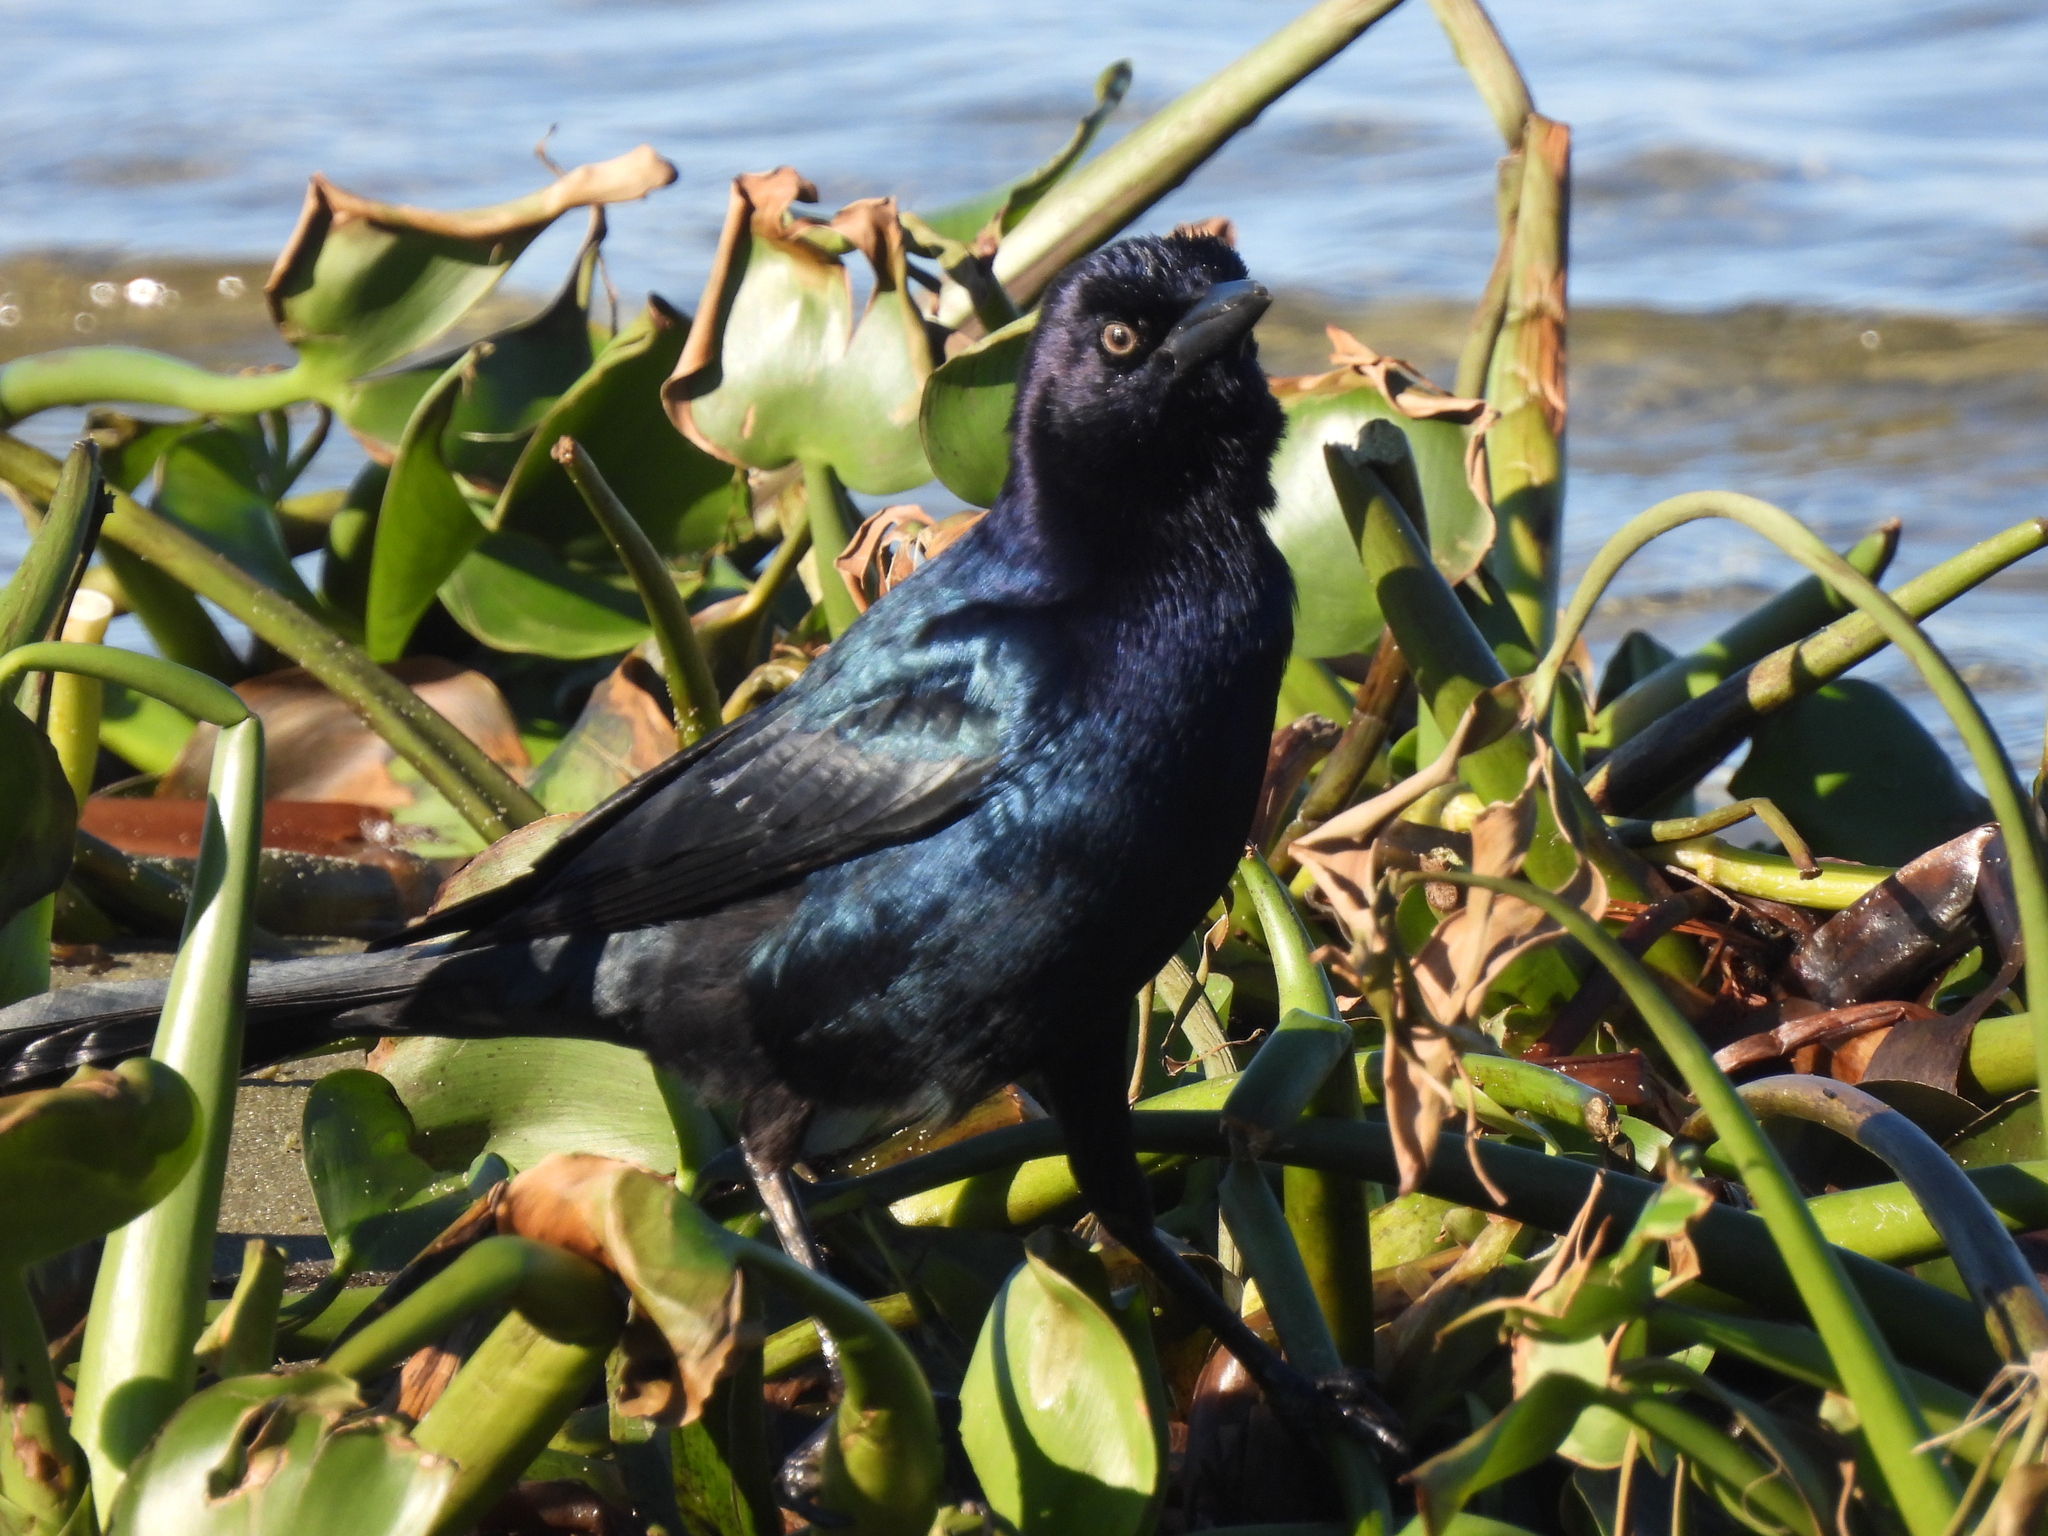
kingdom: Animalia
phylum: Chordata
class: Aves
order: Passeriformes
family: Icteridae
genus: Quiscalus
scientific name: Quiscalus major
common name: Boat-tailed grackle
